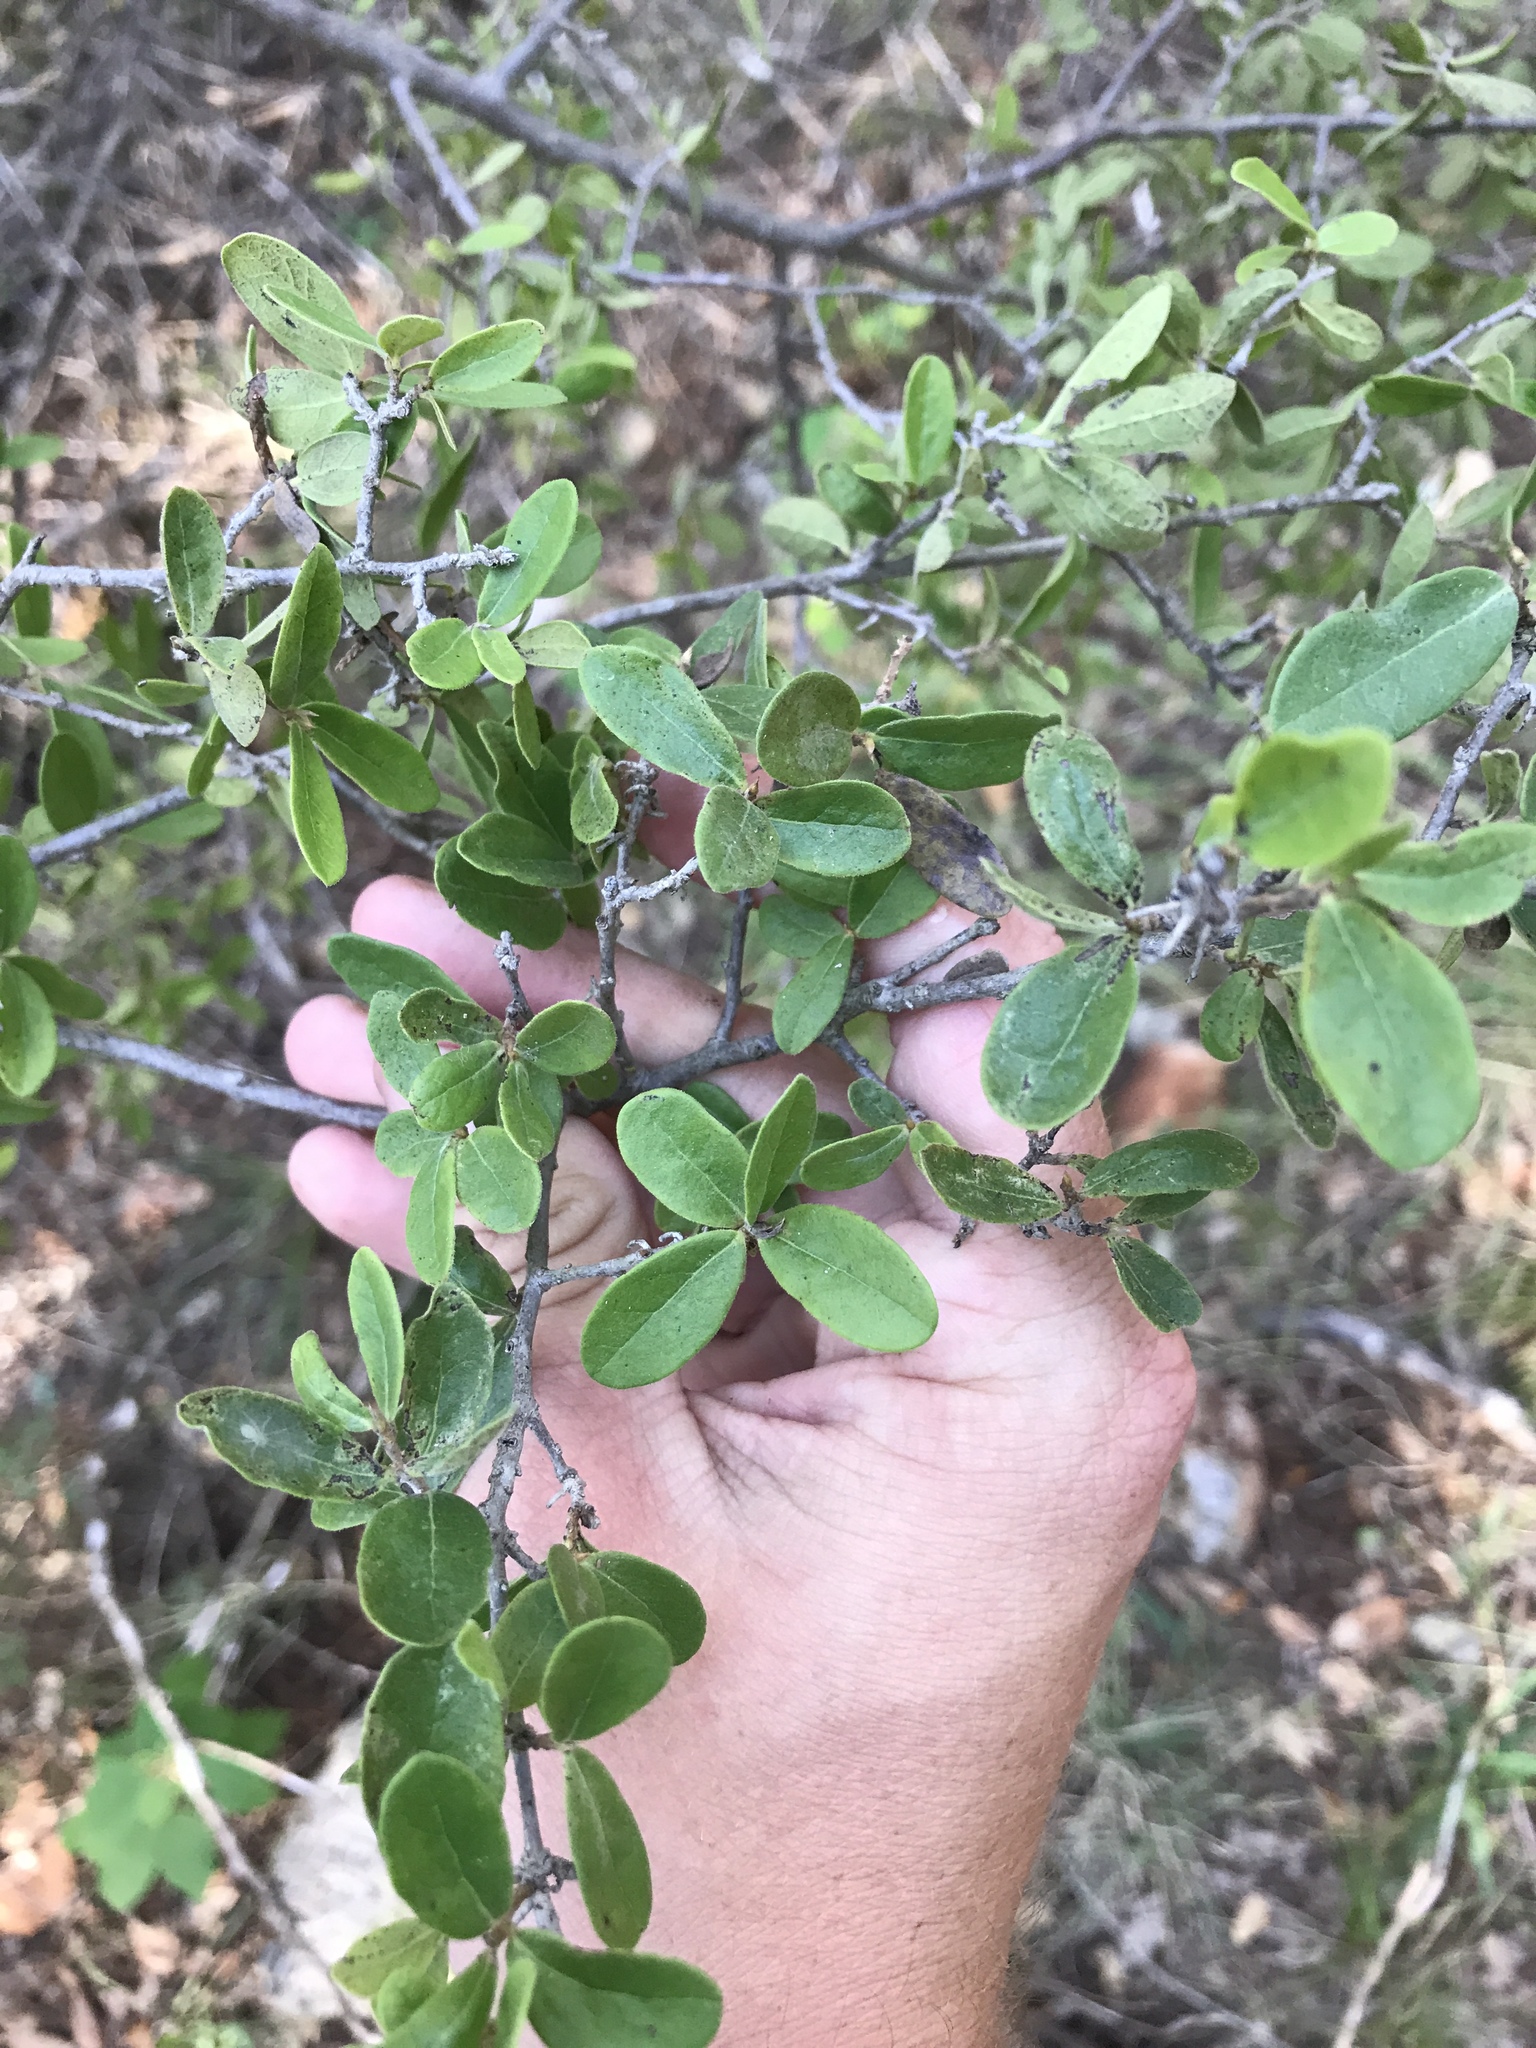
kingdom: Plantae
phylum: Tracheophyta
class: Magnoliopsida
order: Ericales
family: Ebenaceae
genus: Diospyros
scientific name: Diospyros texana
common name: Texas persimmon
